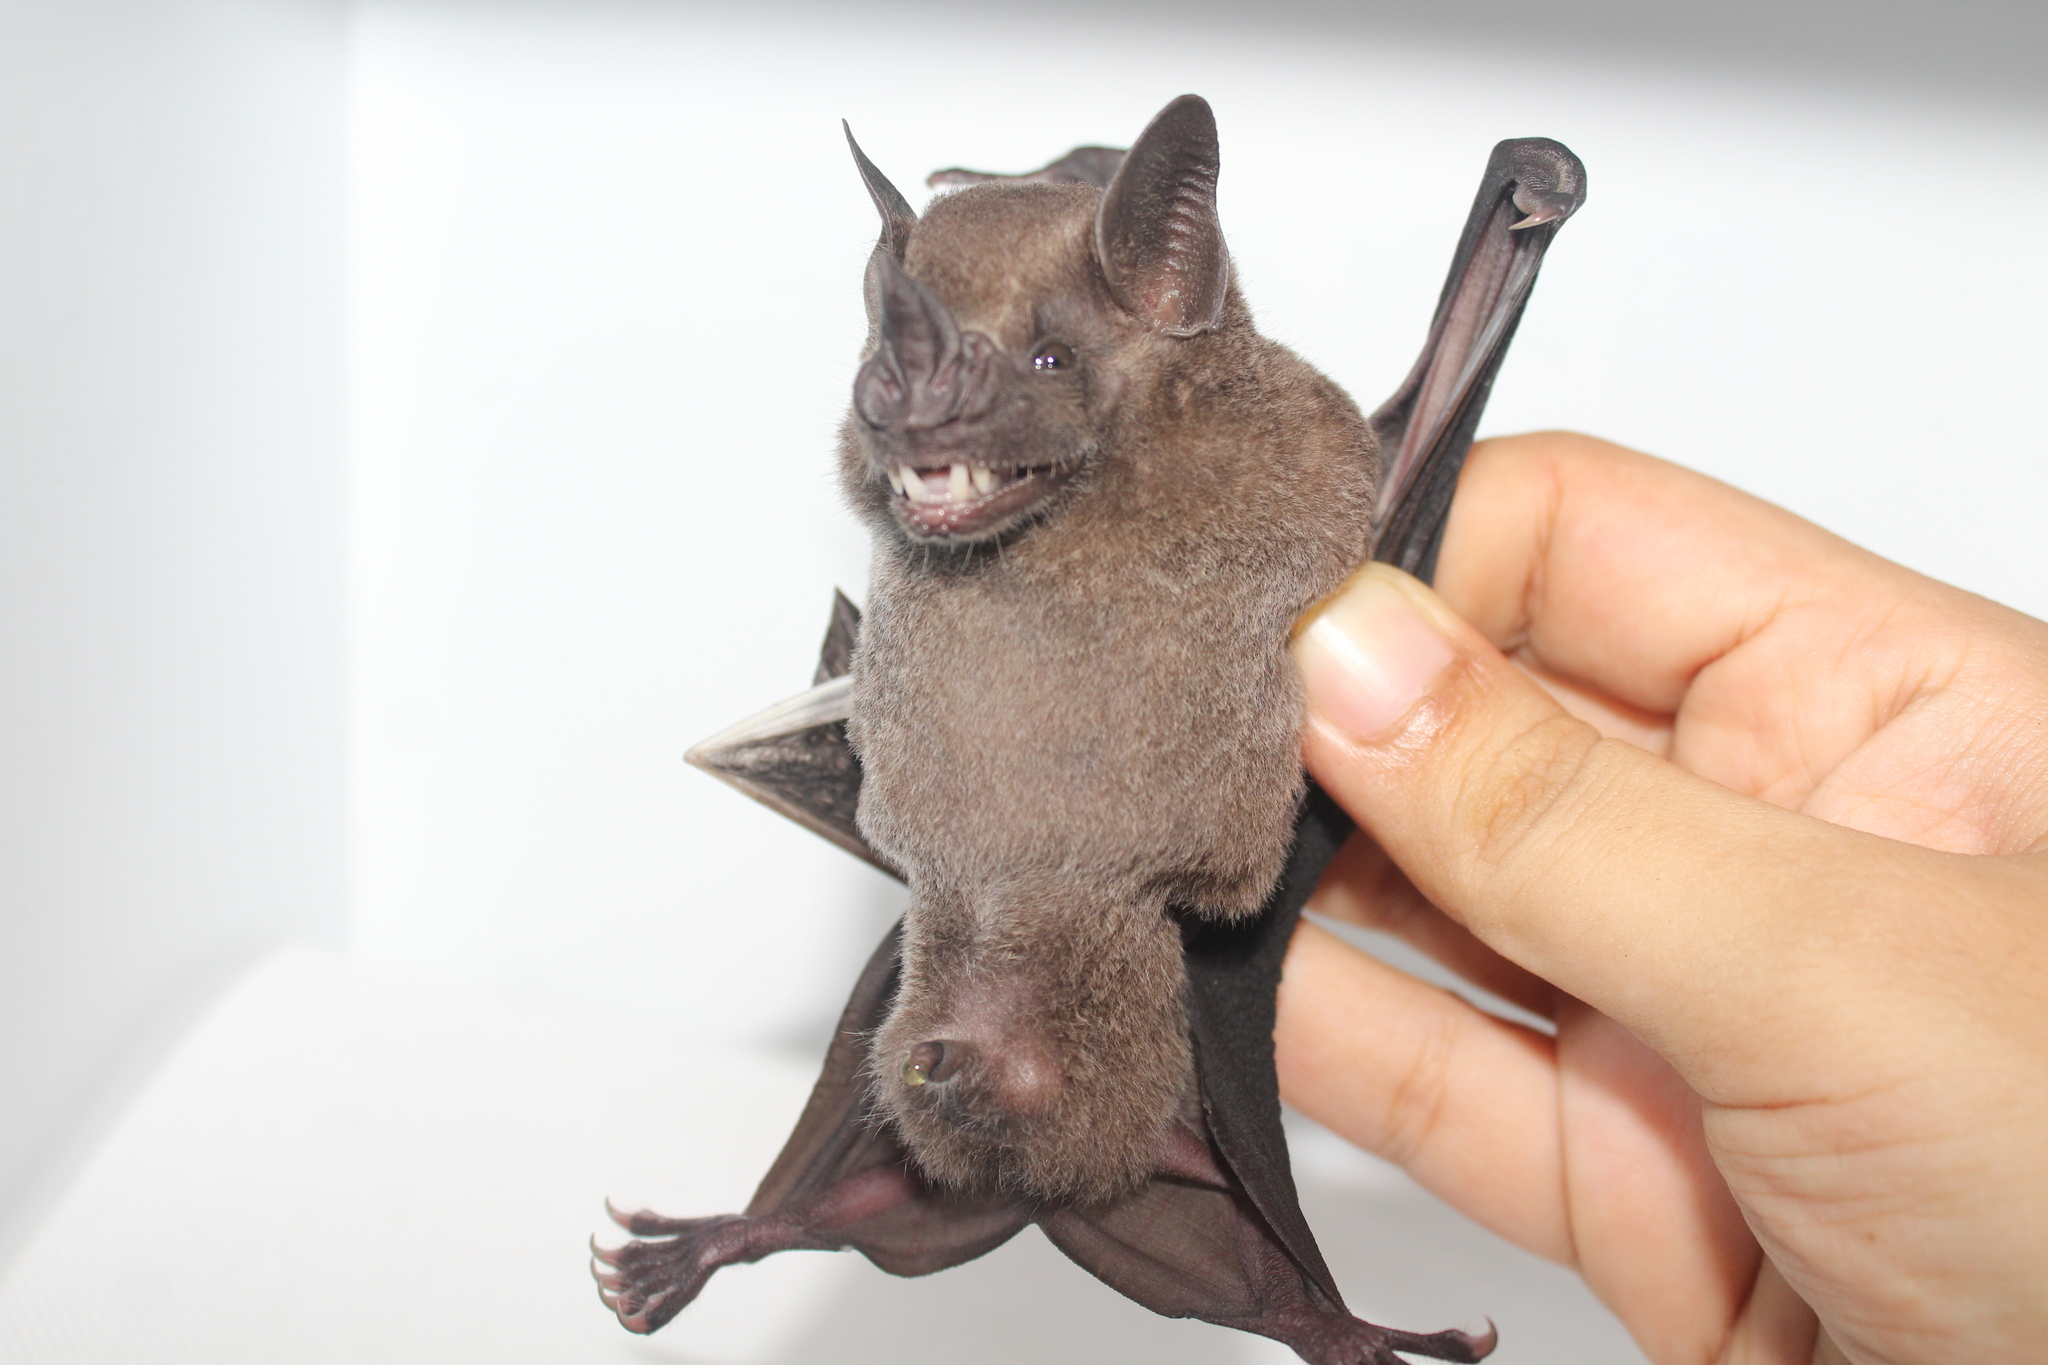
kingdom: Animalia
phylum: Chordata
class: Mammalia
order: Chiroptera
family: Phyllostomidae
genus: Artibeus
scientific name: Artibeus jamaicensis
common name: Jamaican fruit-eating bat
